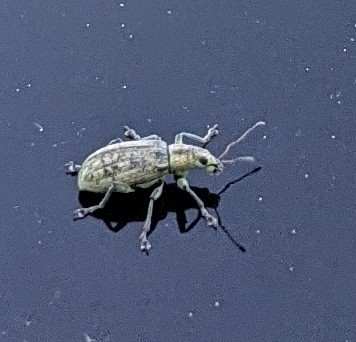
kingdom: Animalia
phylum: Arthropoda
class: Insecta
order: Coleoptera
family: Curculionidae
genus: Polydrusus
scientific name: Polydrusus cervinus
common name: Weevil
